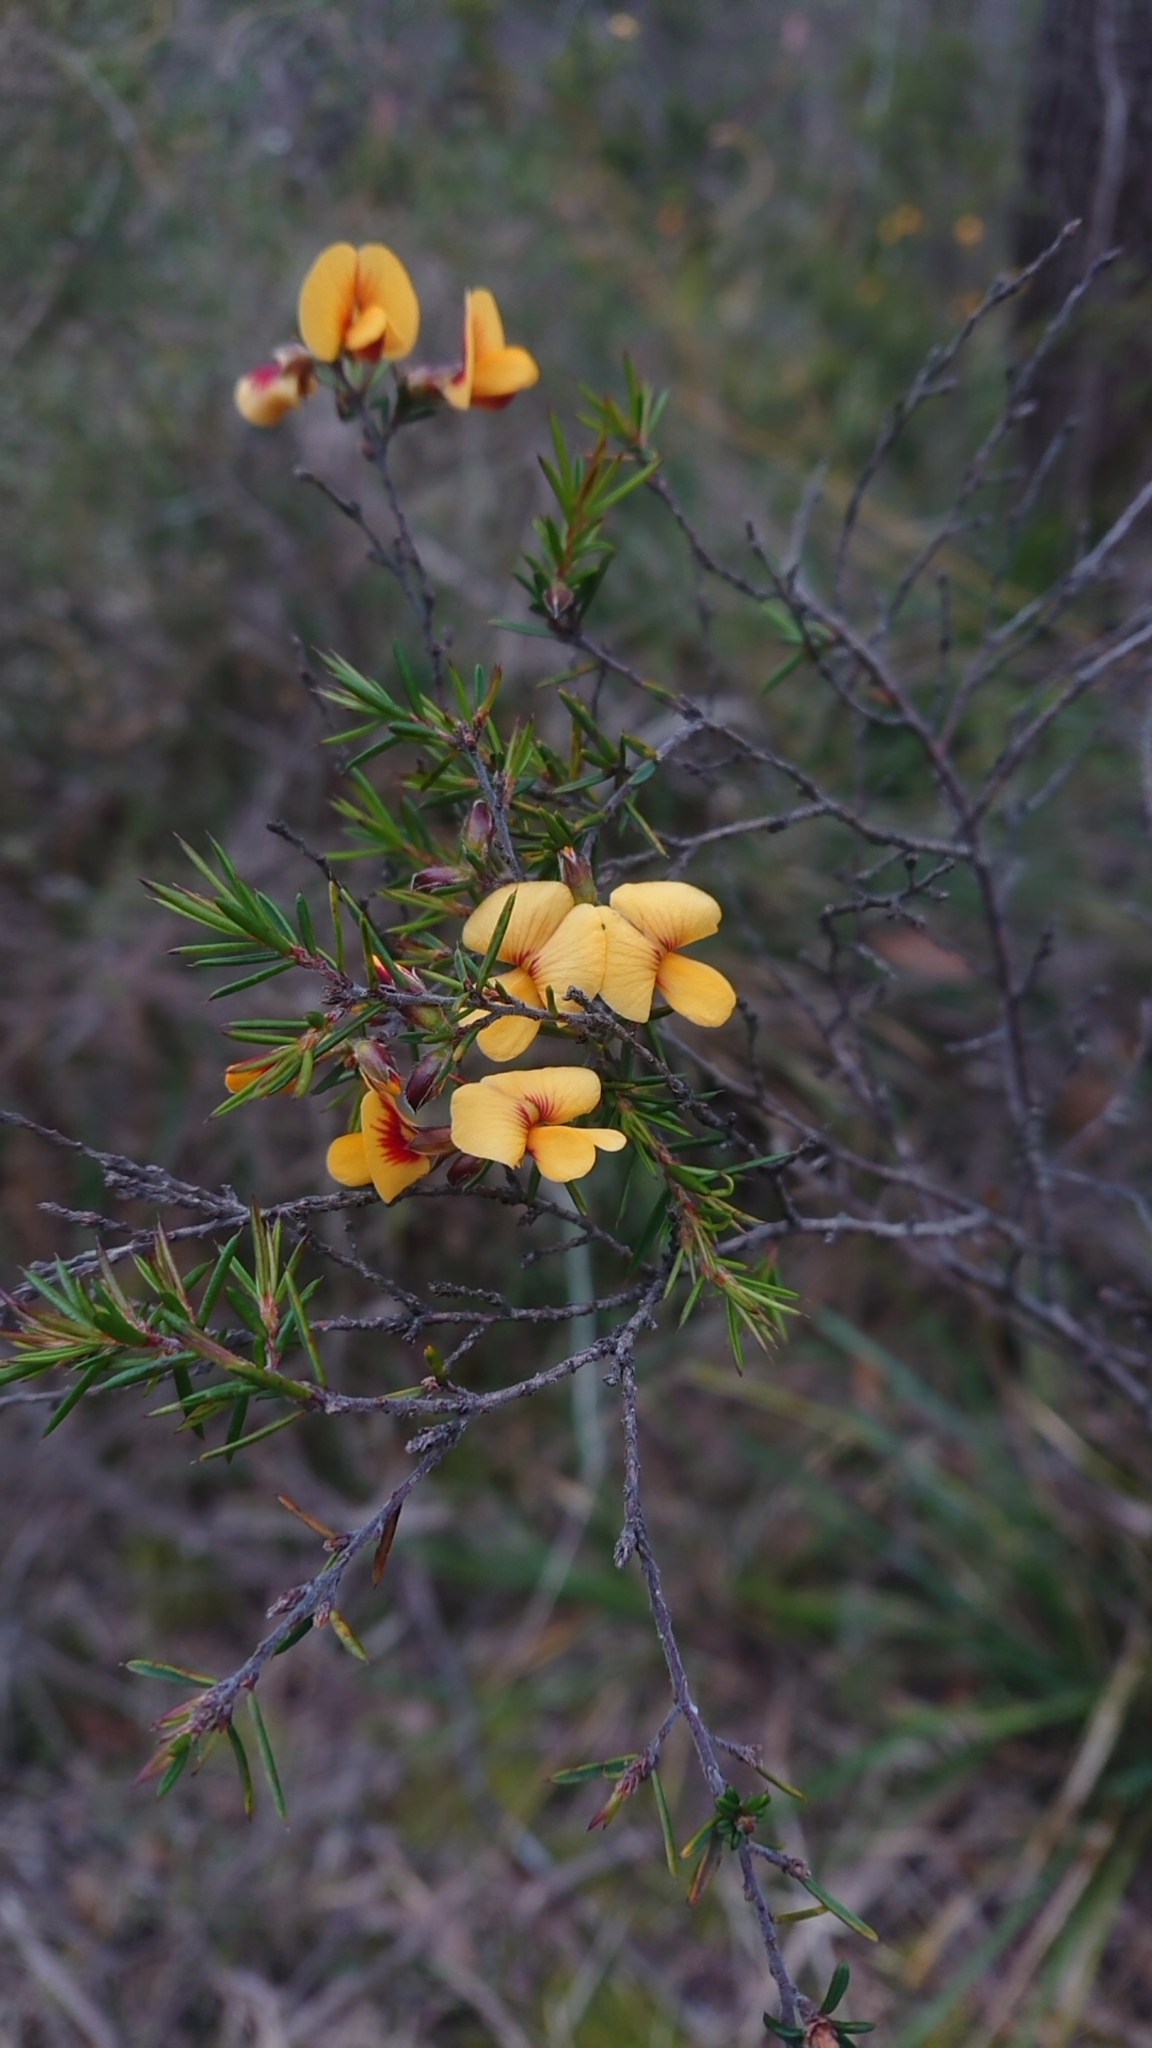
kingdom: Plantae
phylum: Tracheophyta
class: Magnoliopsida
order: Fabales
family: Fabaceae
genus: Pultenaea
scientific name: Pultenaea juniperina
